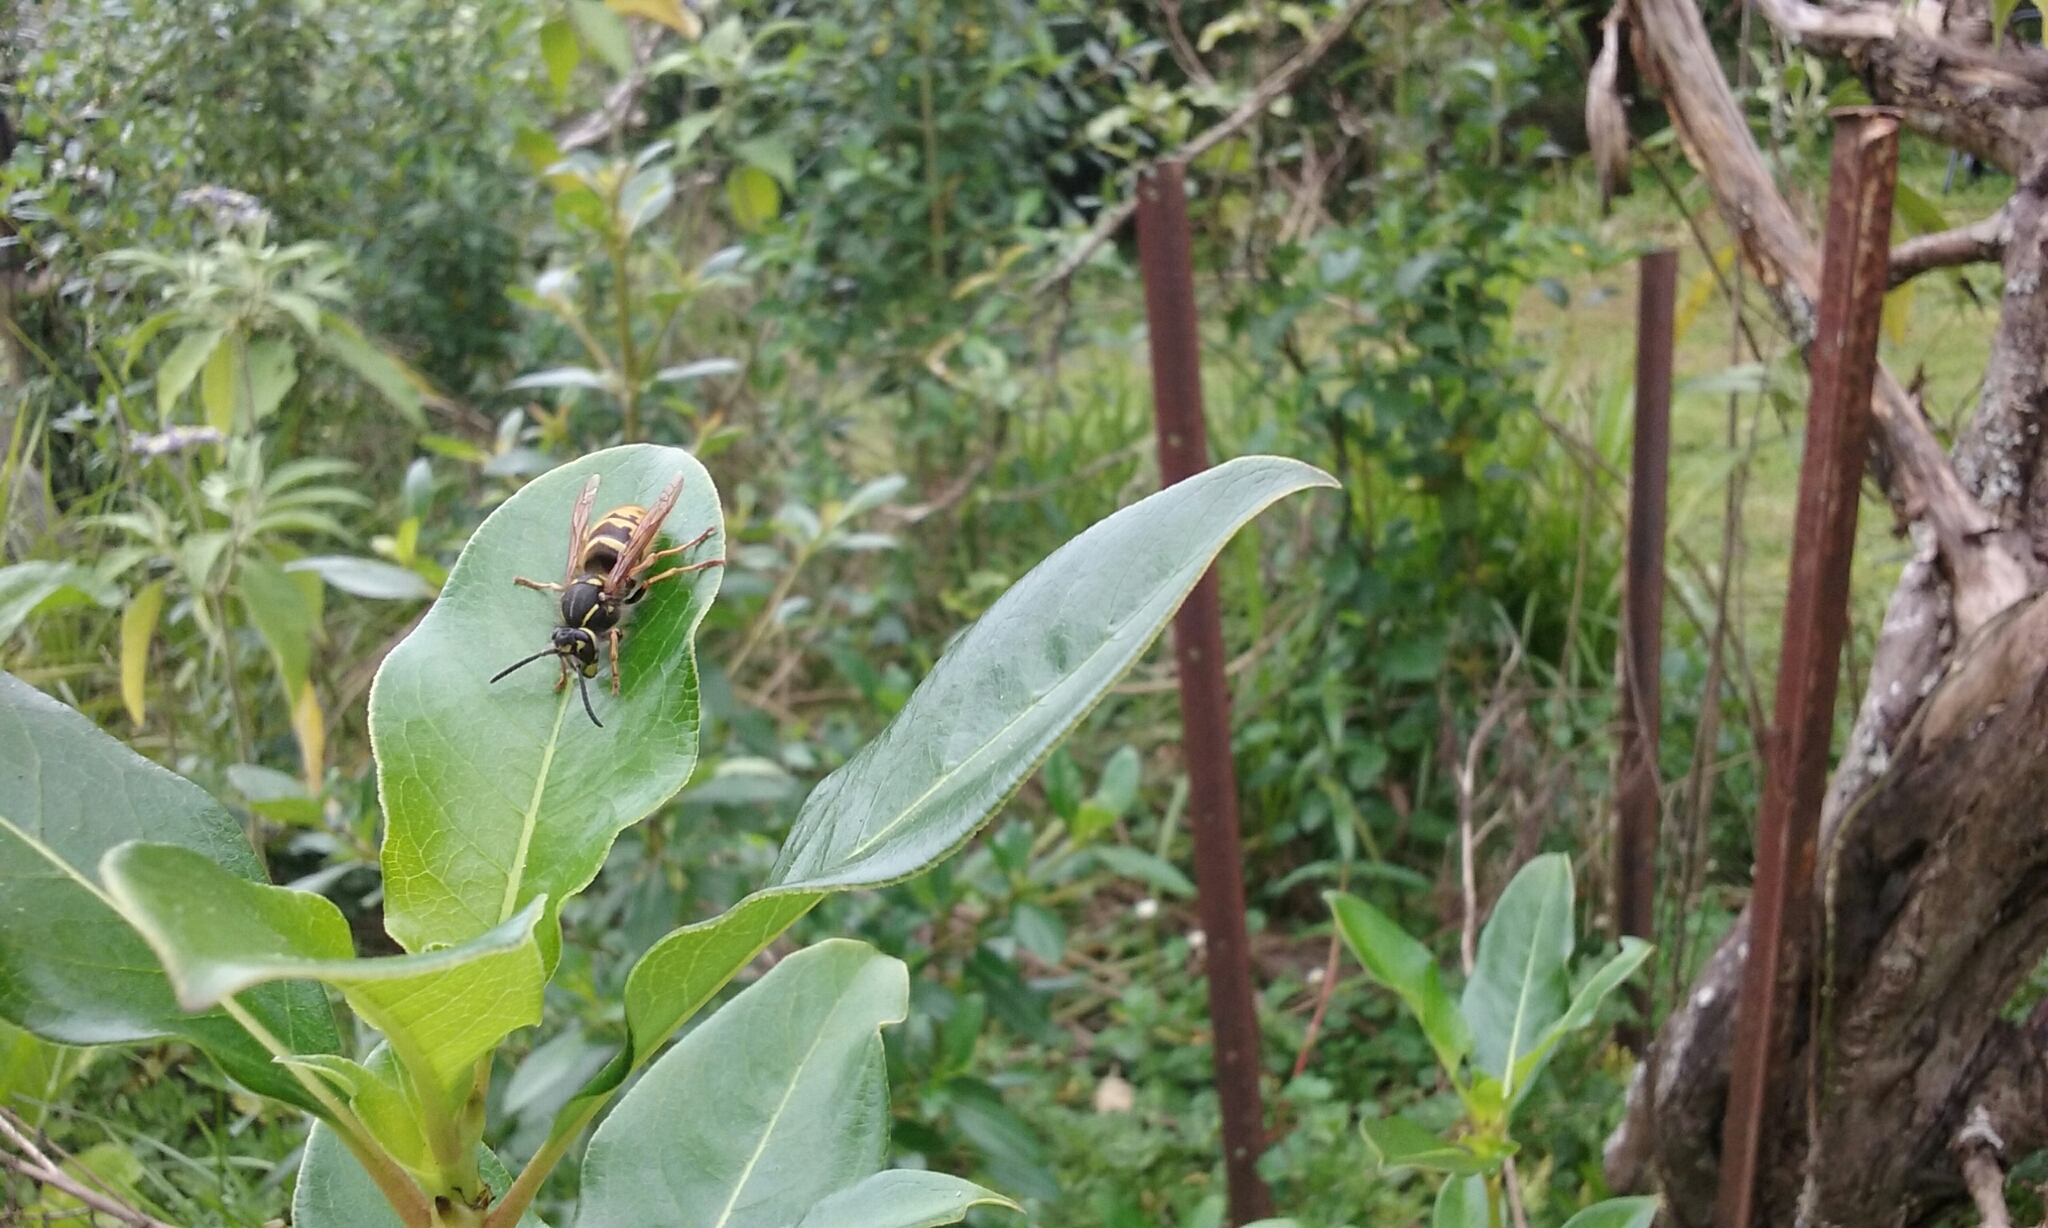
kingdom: Animalia
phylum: Arthropoda
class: Insecta
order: Hymenoptera
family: Vespidae
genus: Vespula
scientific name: Vespula vulgaris
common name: Common wasp
